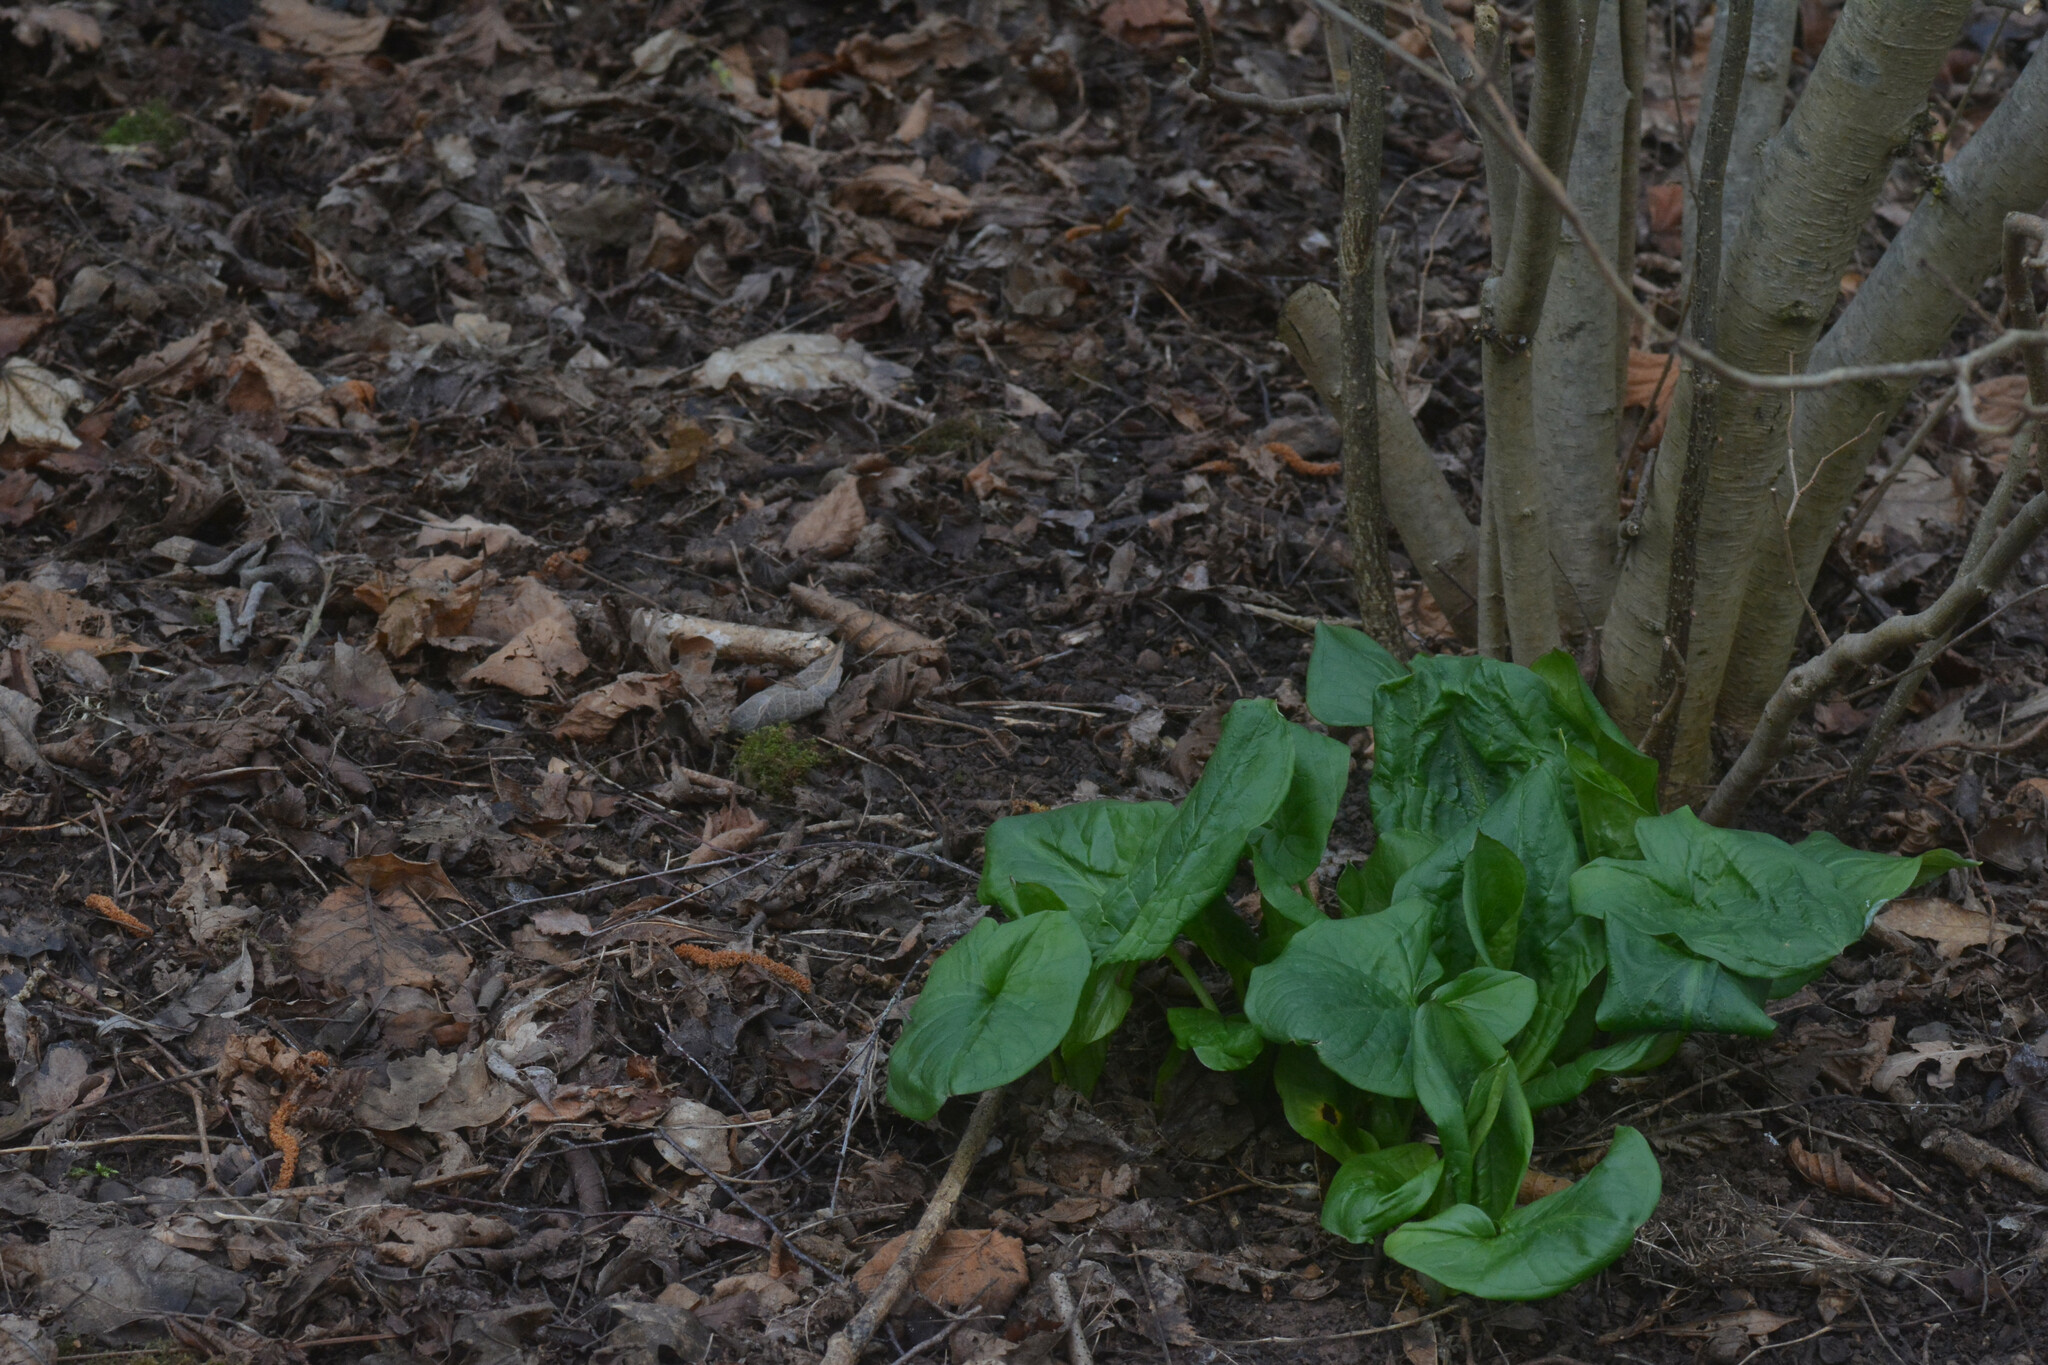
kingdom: Plantae
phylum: Tracheophyta
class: Liliopsida
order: Alismatales
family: Araceae
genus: Arum
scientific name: Arum maculatum
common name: Lords-and-ladies
